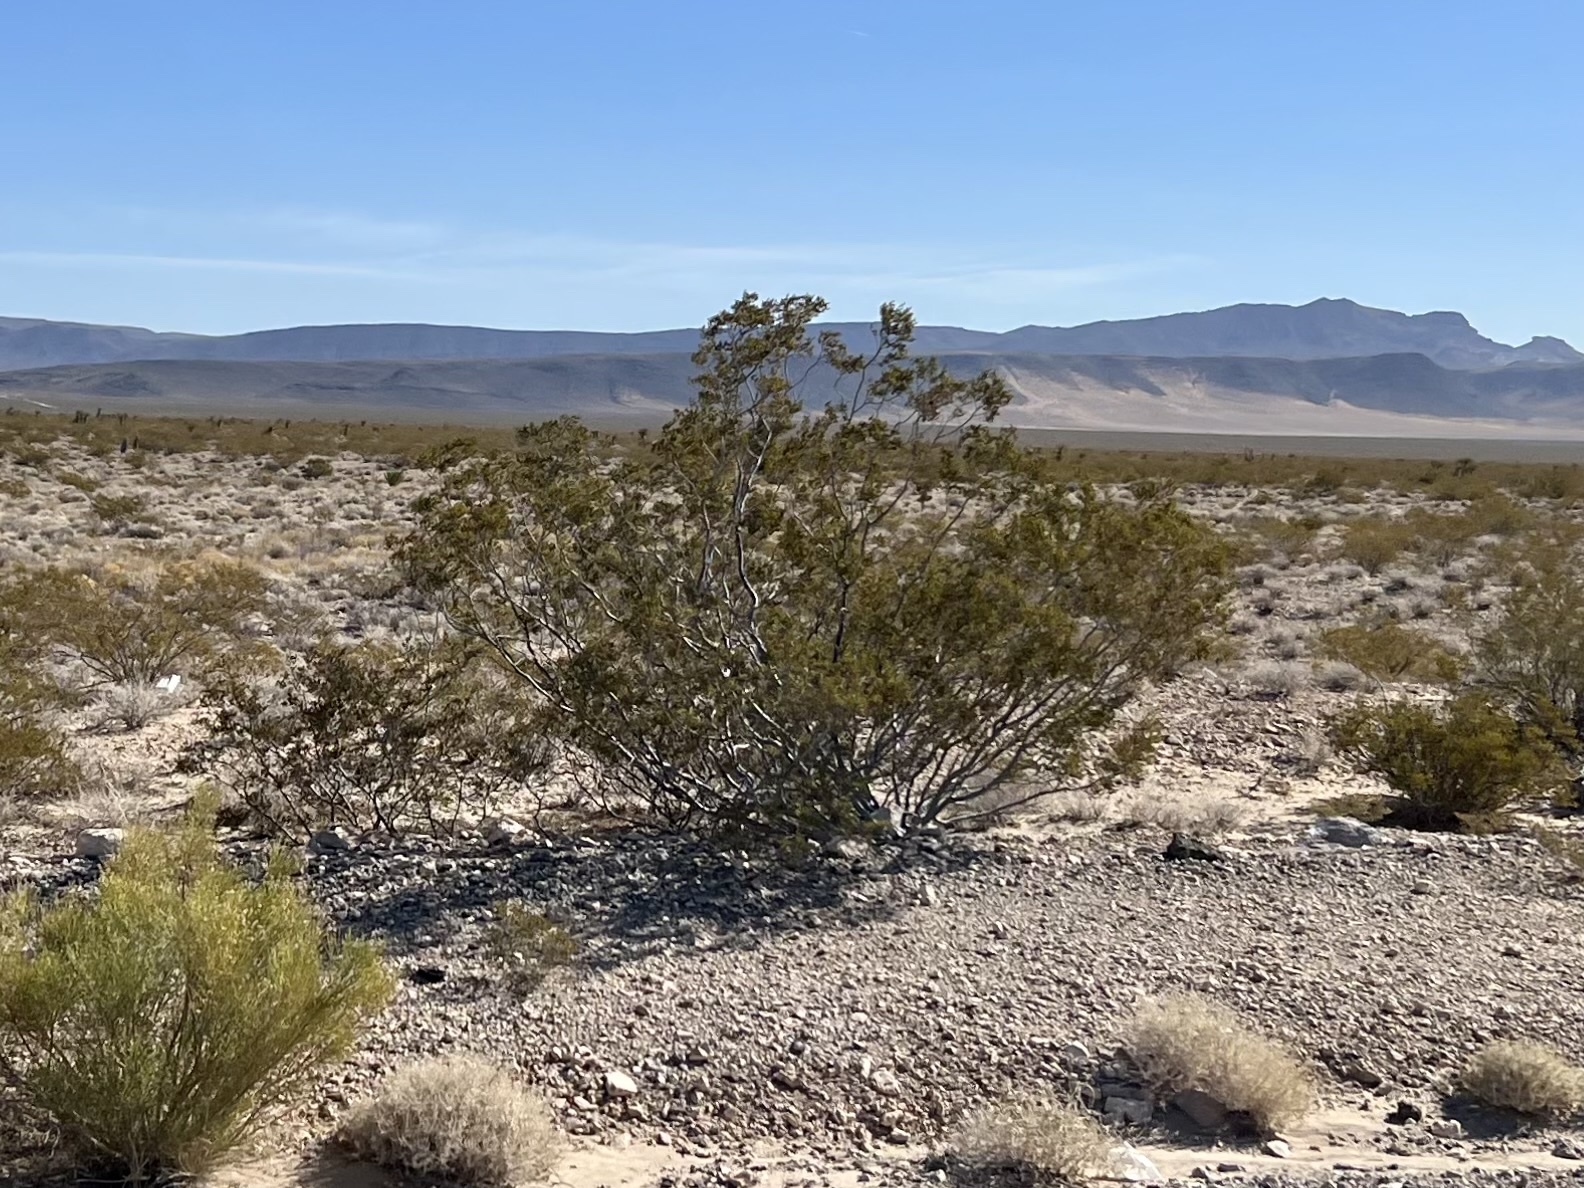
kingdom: Plantae
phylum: Tracheophyta
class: Magnoliopsida
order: Zygophyllales
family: Zygophyllaceae
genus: Larrea
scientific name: Larrea tridentata
